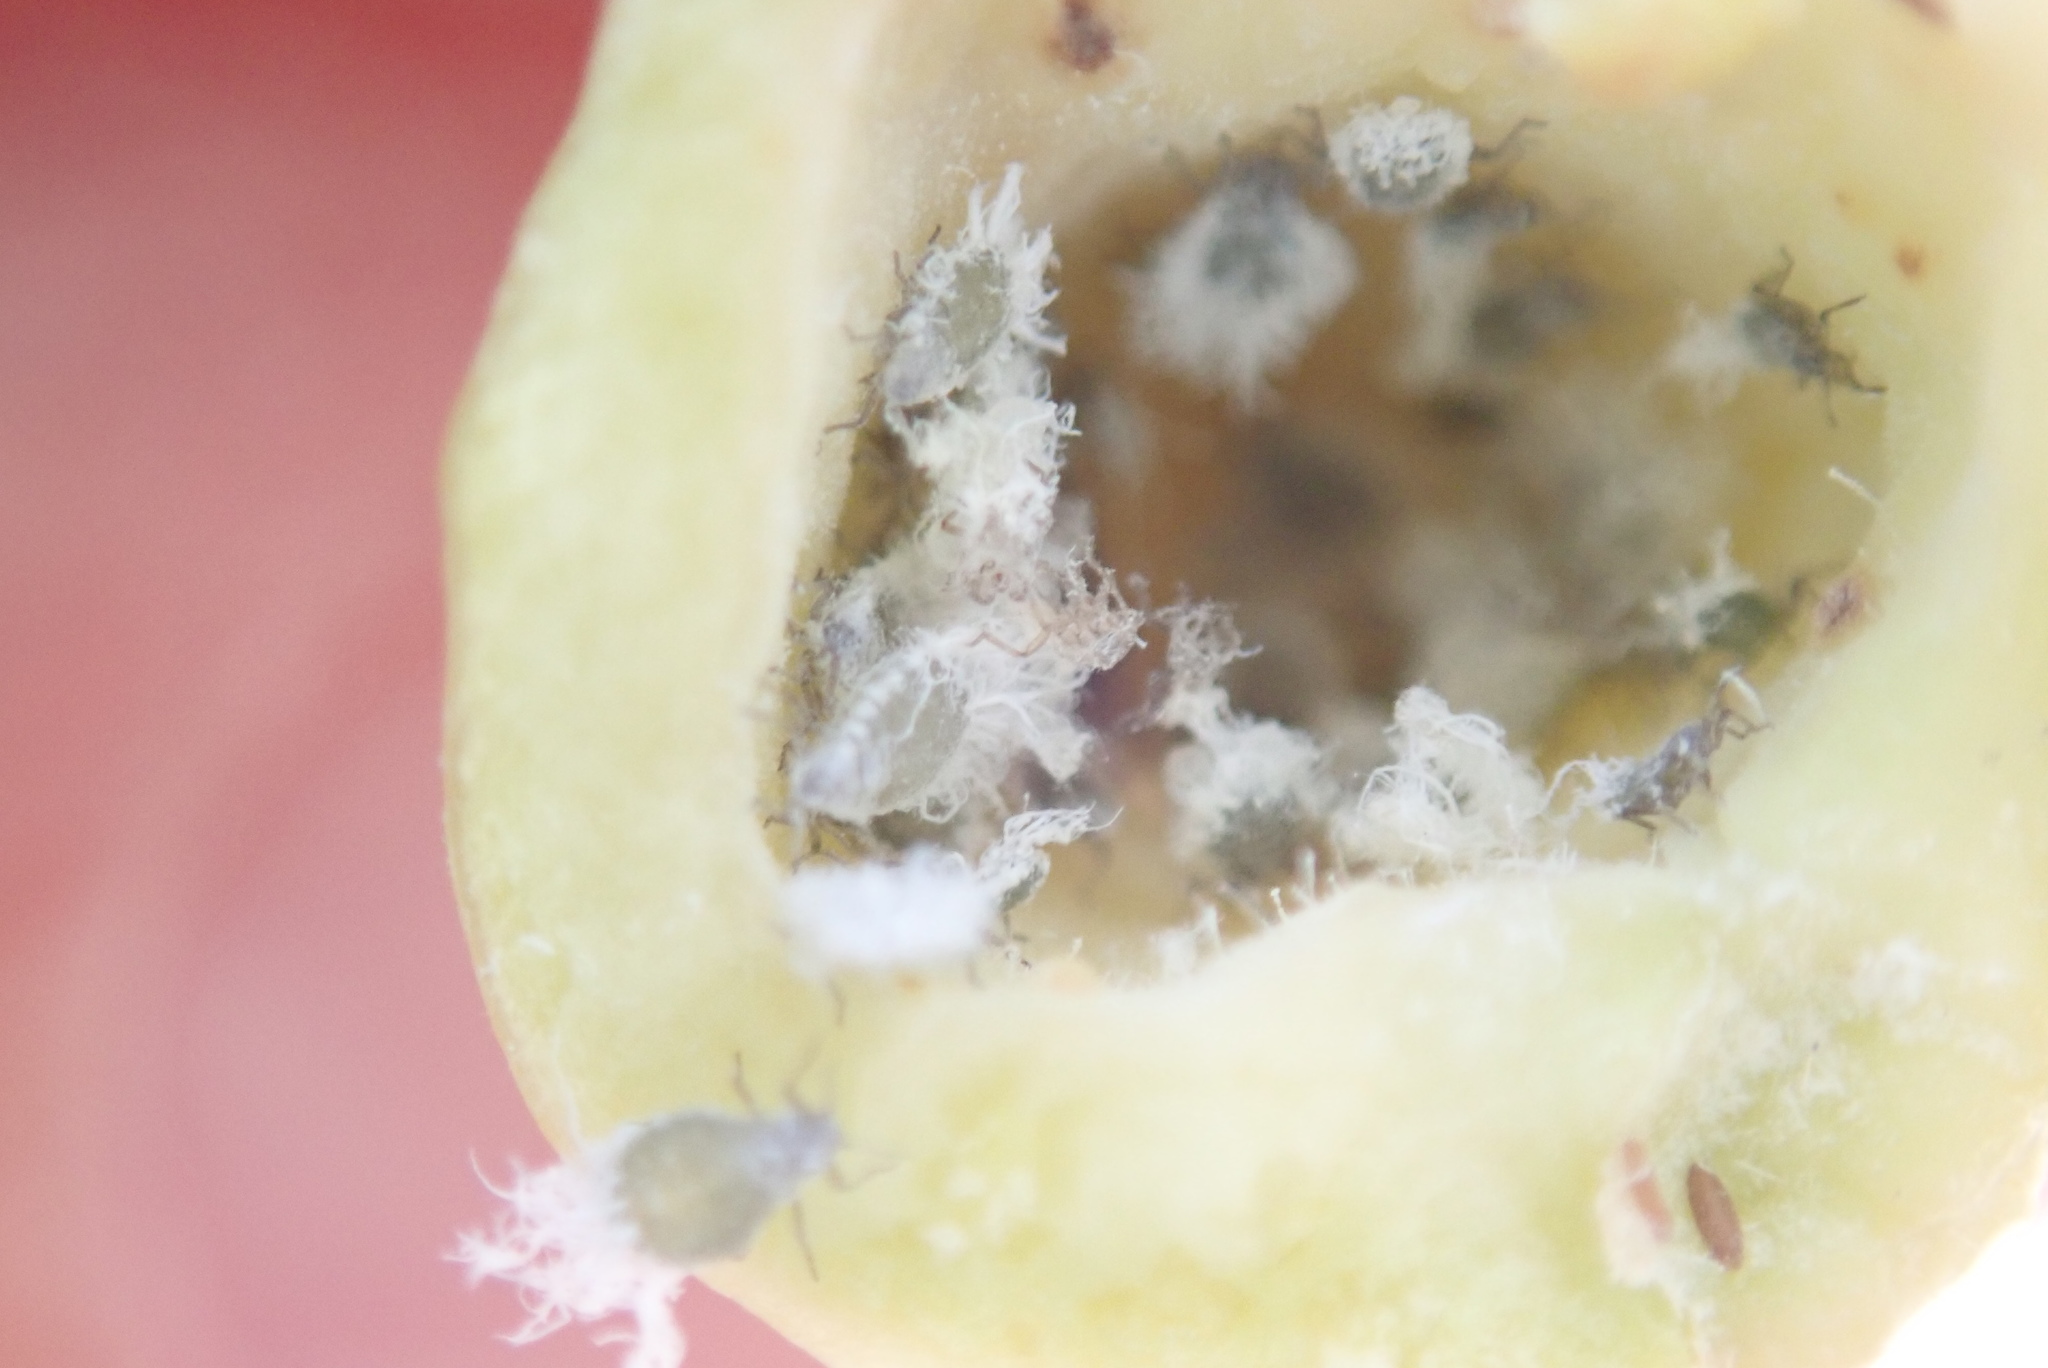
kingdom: Animalia
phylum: Arthropoda
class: Insecta
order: Hemiptera
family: Aphididae
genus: Pemphigus
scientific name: Pemphigus obesinymphae
